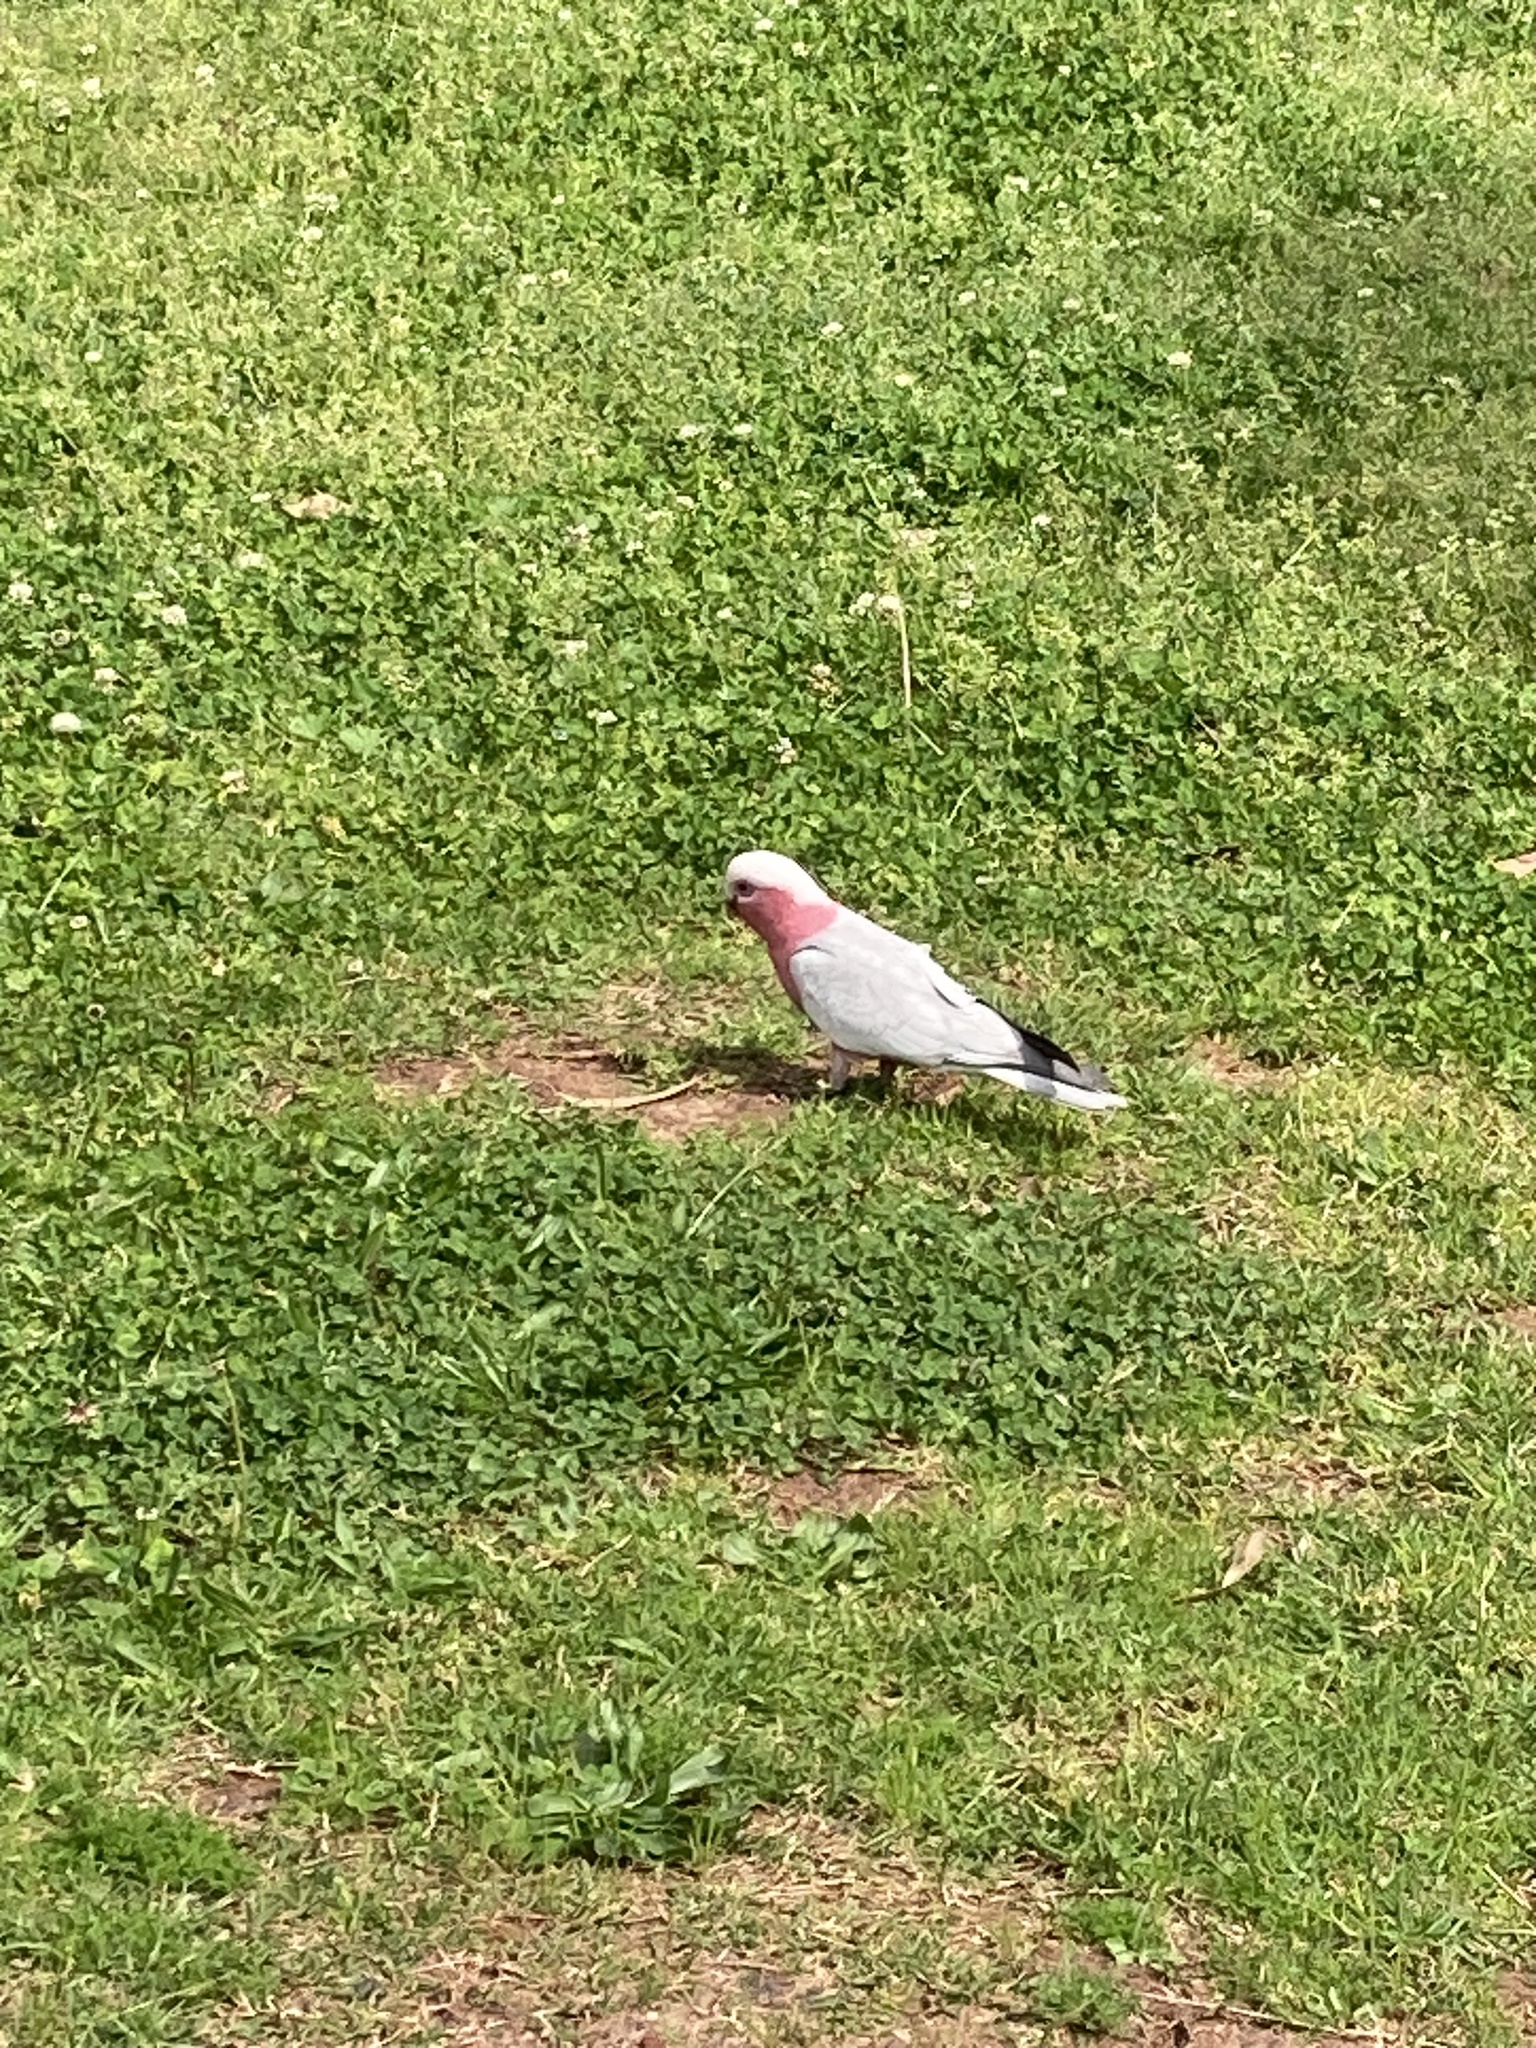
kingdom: Animalia
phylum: Chordata
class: Aves
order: Psittaciformes
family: Psittacidae
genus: Eolophus
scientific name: Eolophus roseicapilla
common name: Galah
